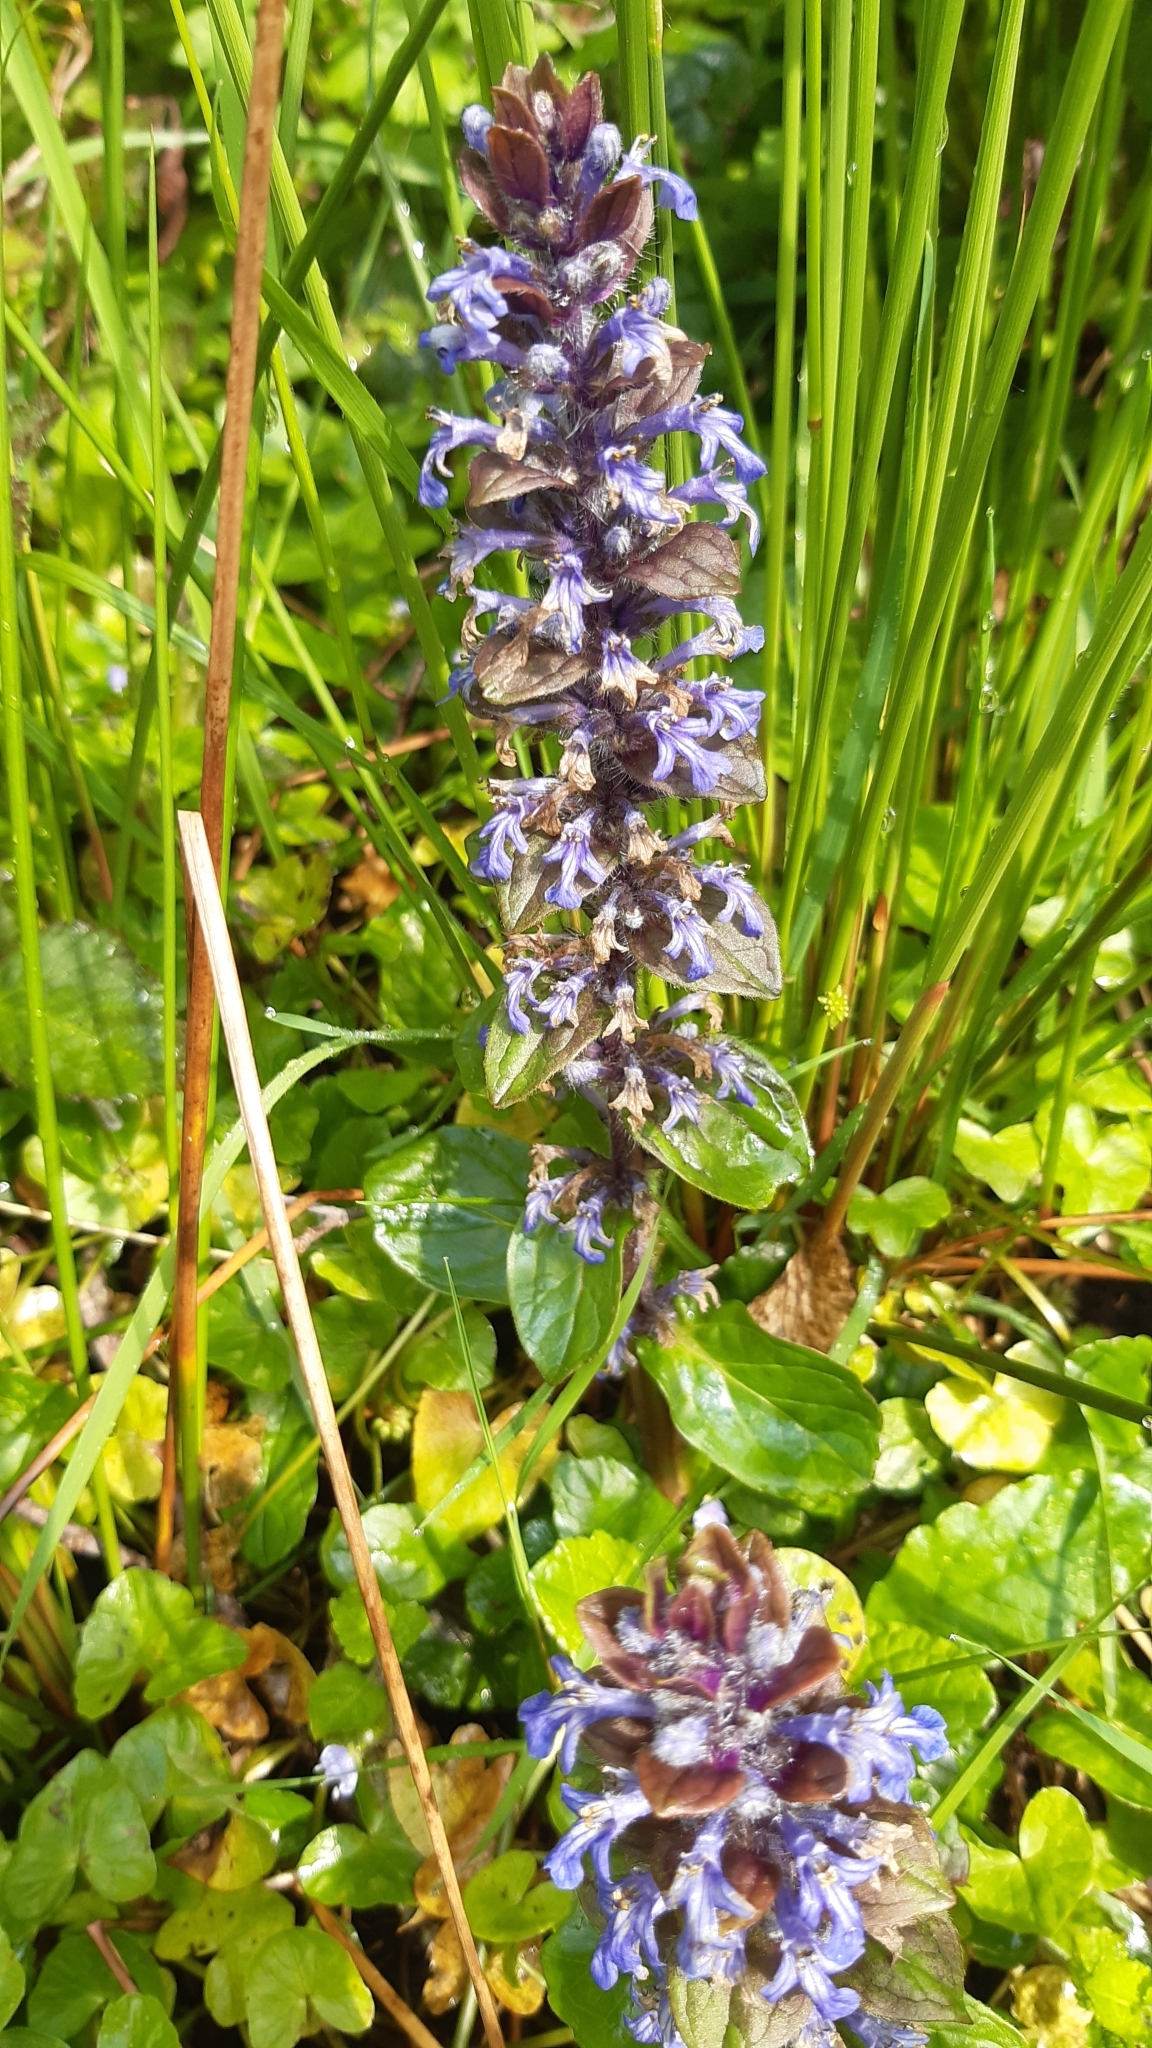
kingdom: Plantae
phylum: Tracheophyta
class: Magnoliopsida
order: Lamiales
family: Lamiaceae
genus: Ajuga
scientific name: Ajuga reptans
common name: Bugle
